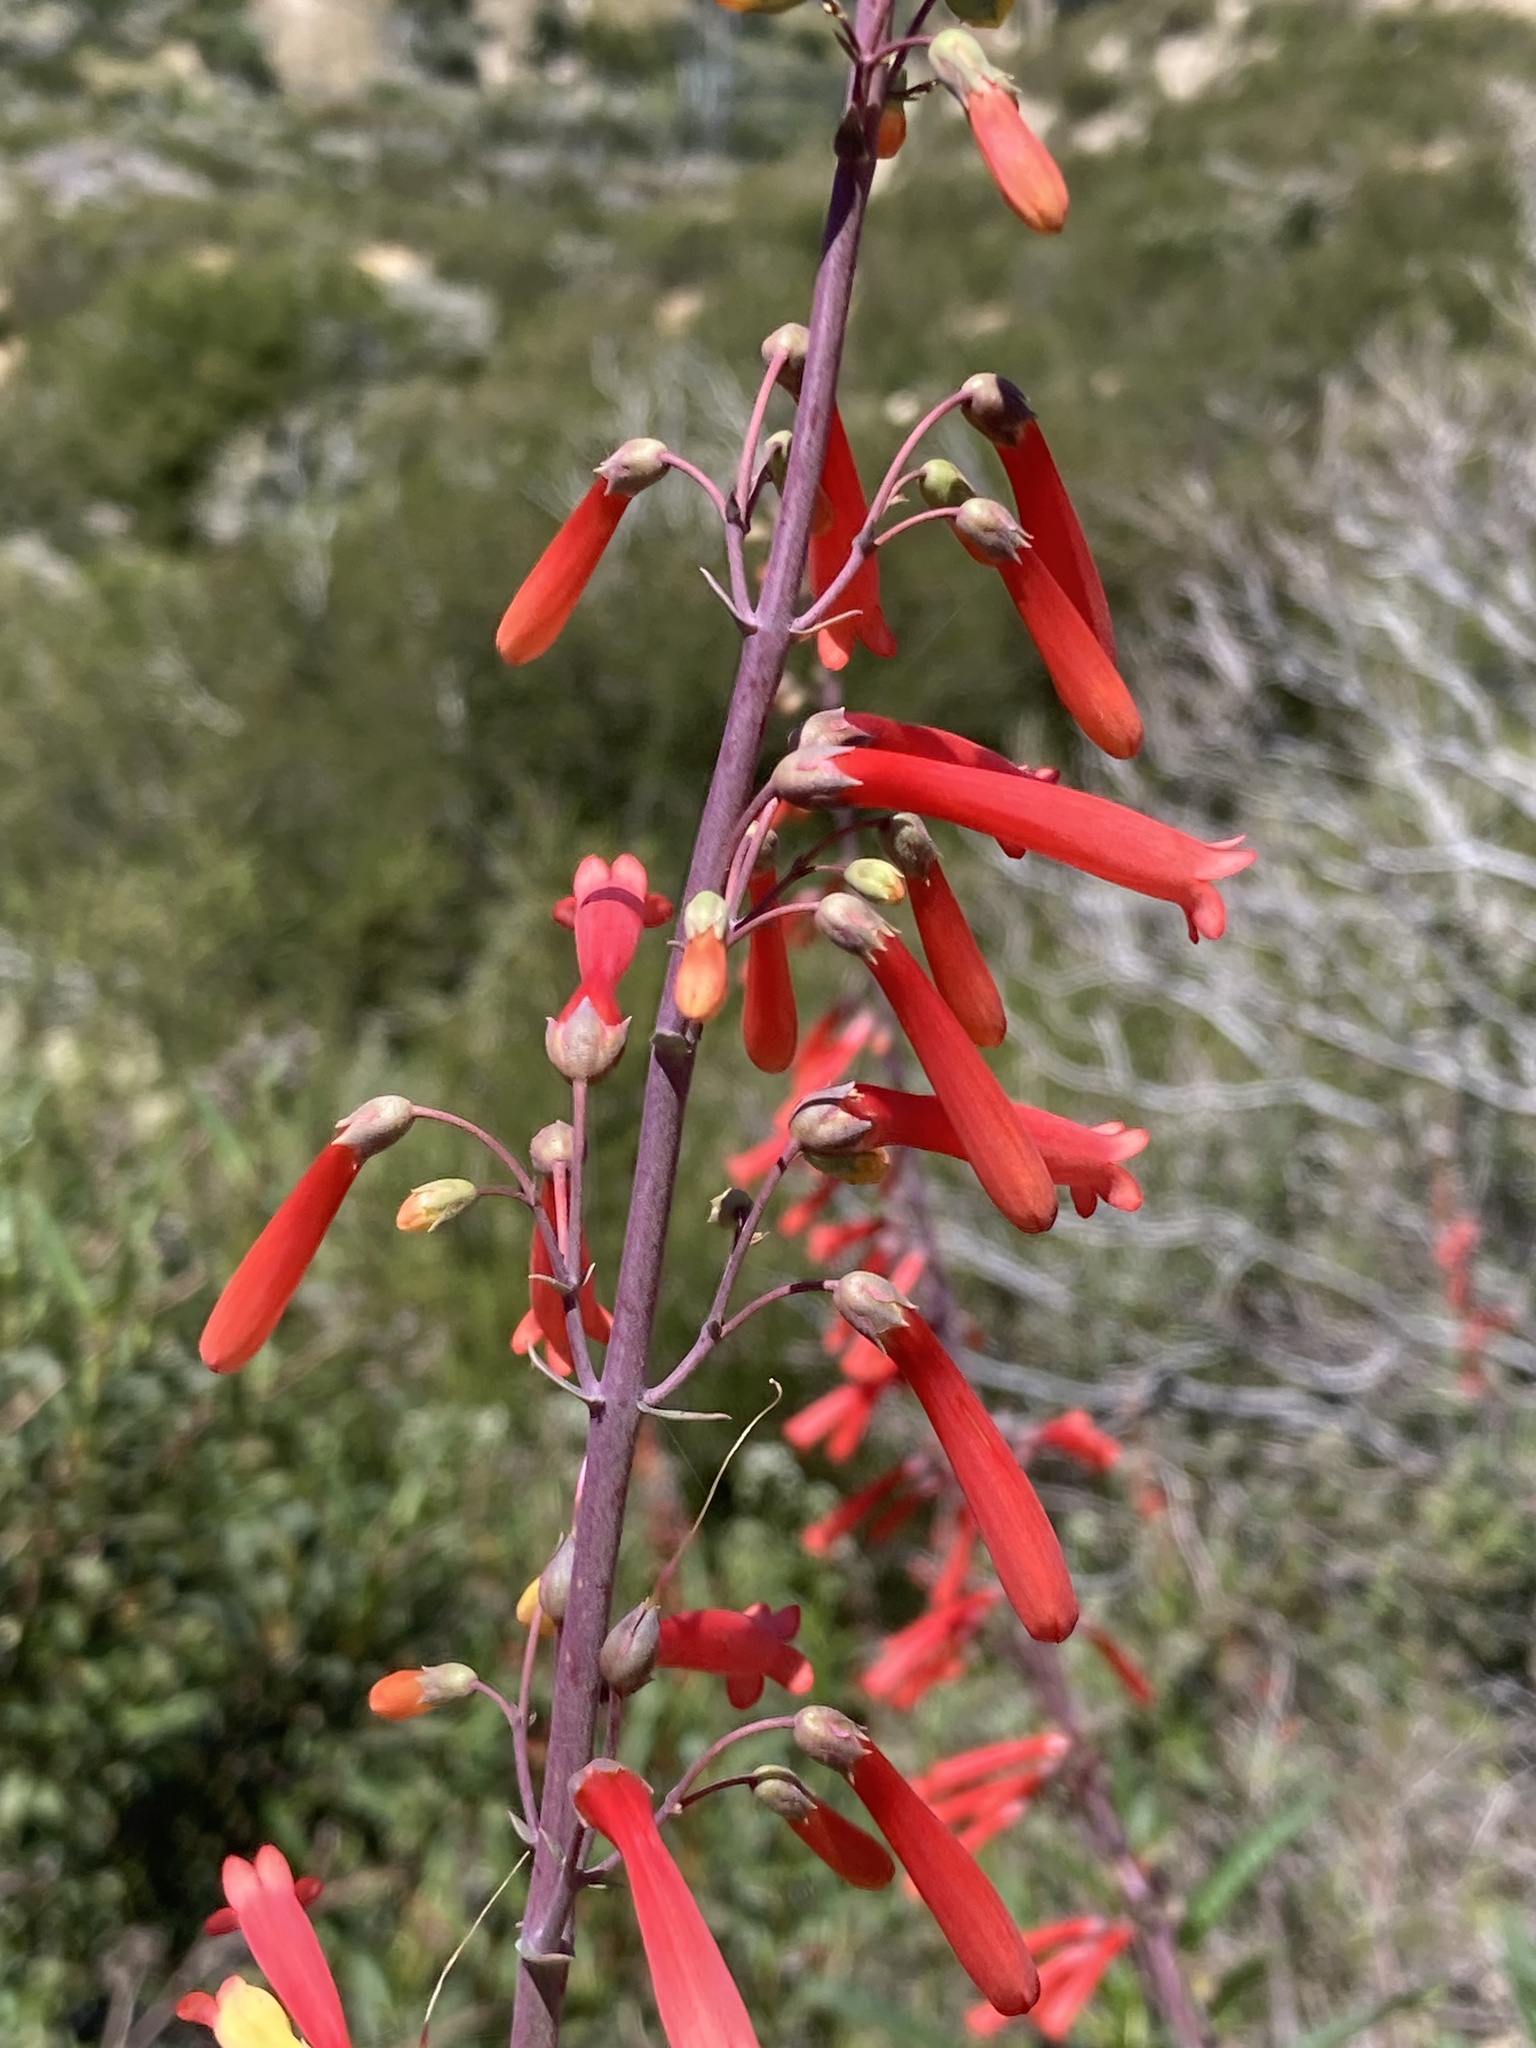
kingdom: Plantae
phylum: Tracheophyta
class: Magnoliopsida
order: Lamiales
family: Plantaginaceae
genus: Penstemon
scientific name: Penstemon centranthifolius
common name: Scarlet bugler
